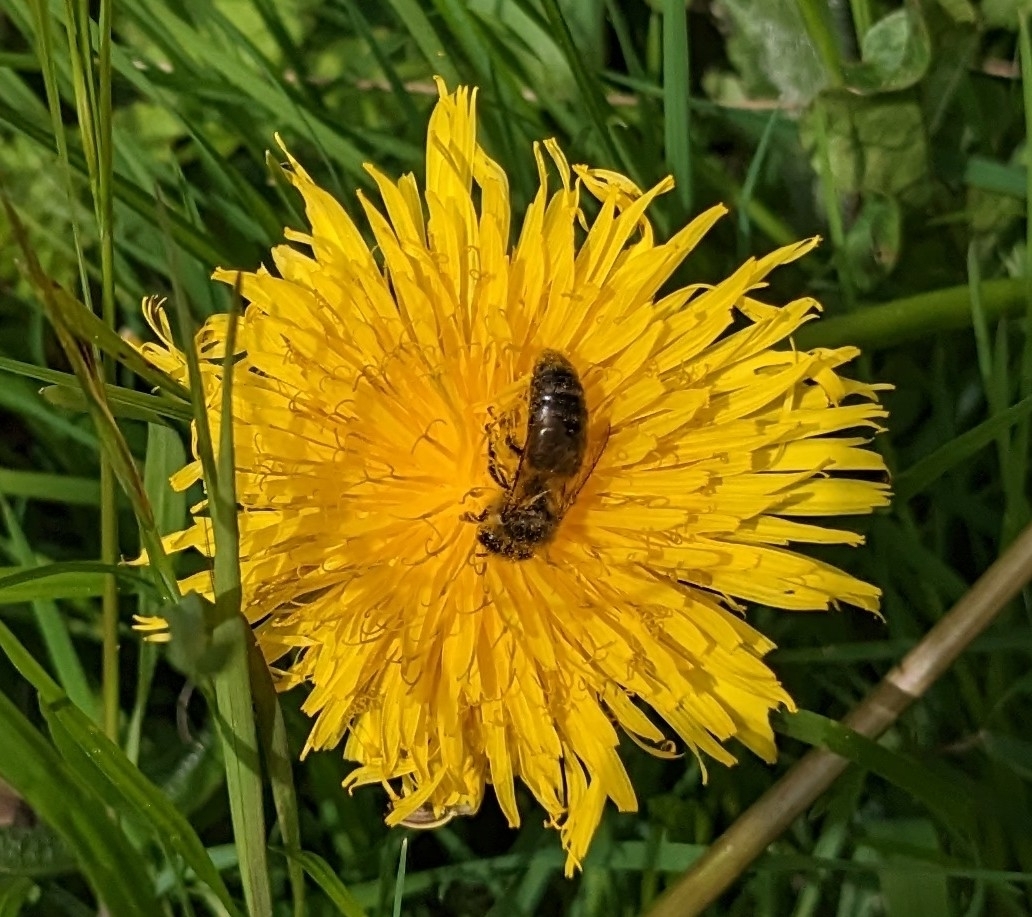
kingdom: Animalia
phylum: Arthropoda
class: Insecta
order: Hymenoptera
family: Apidae
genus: Apis
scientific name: Apis mellifera
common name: Honey bee
